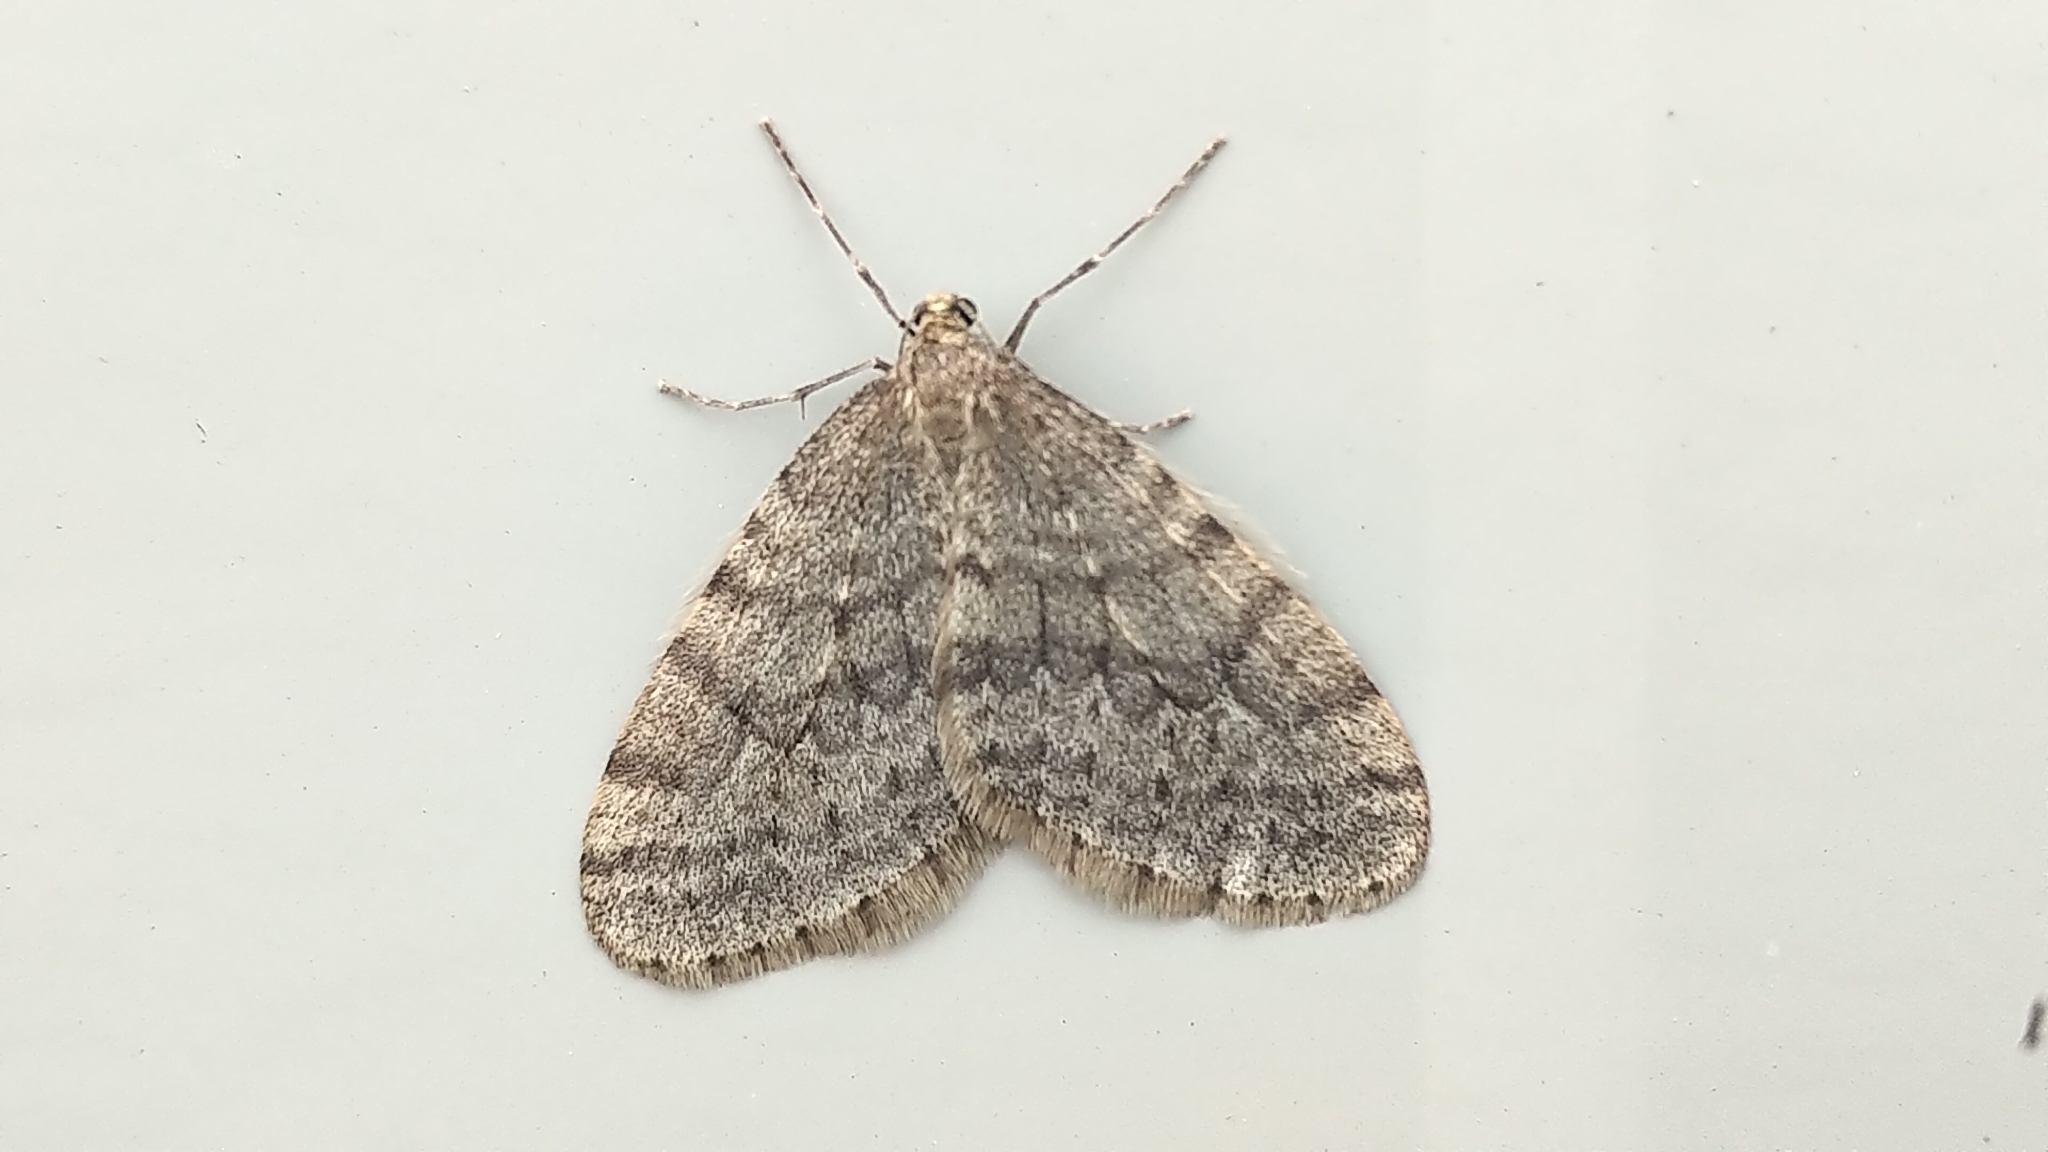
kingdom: Animalia
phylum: Arthropoda
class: Insecta
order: Lepidoptera
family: Geometridae
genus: Operophtera
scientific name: Operophtera bruceata
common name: Bruce spanworm
